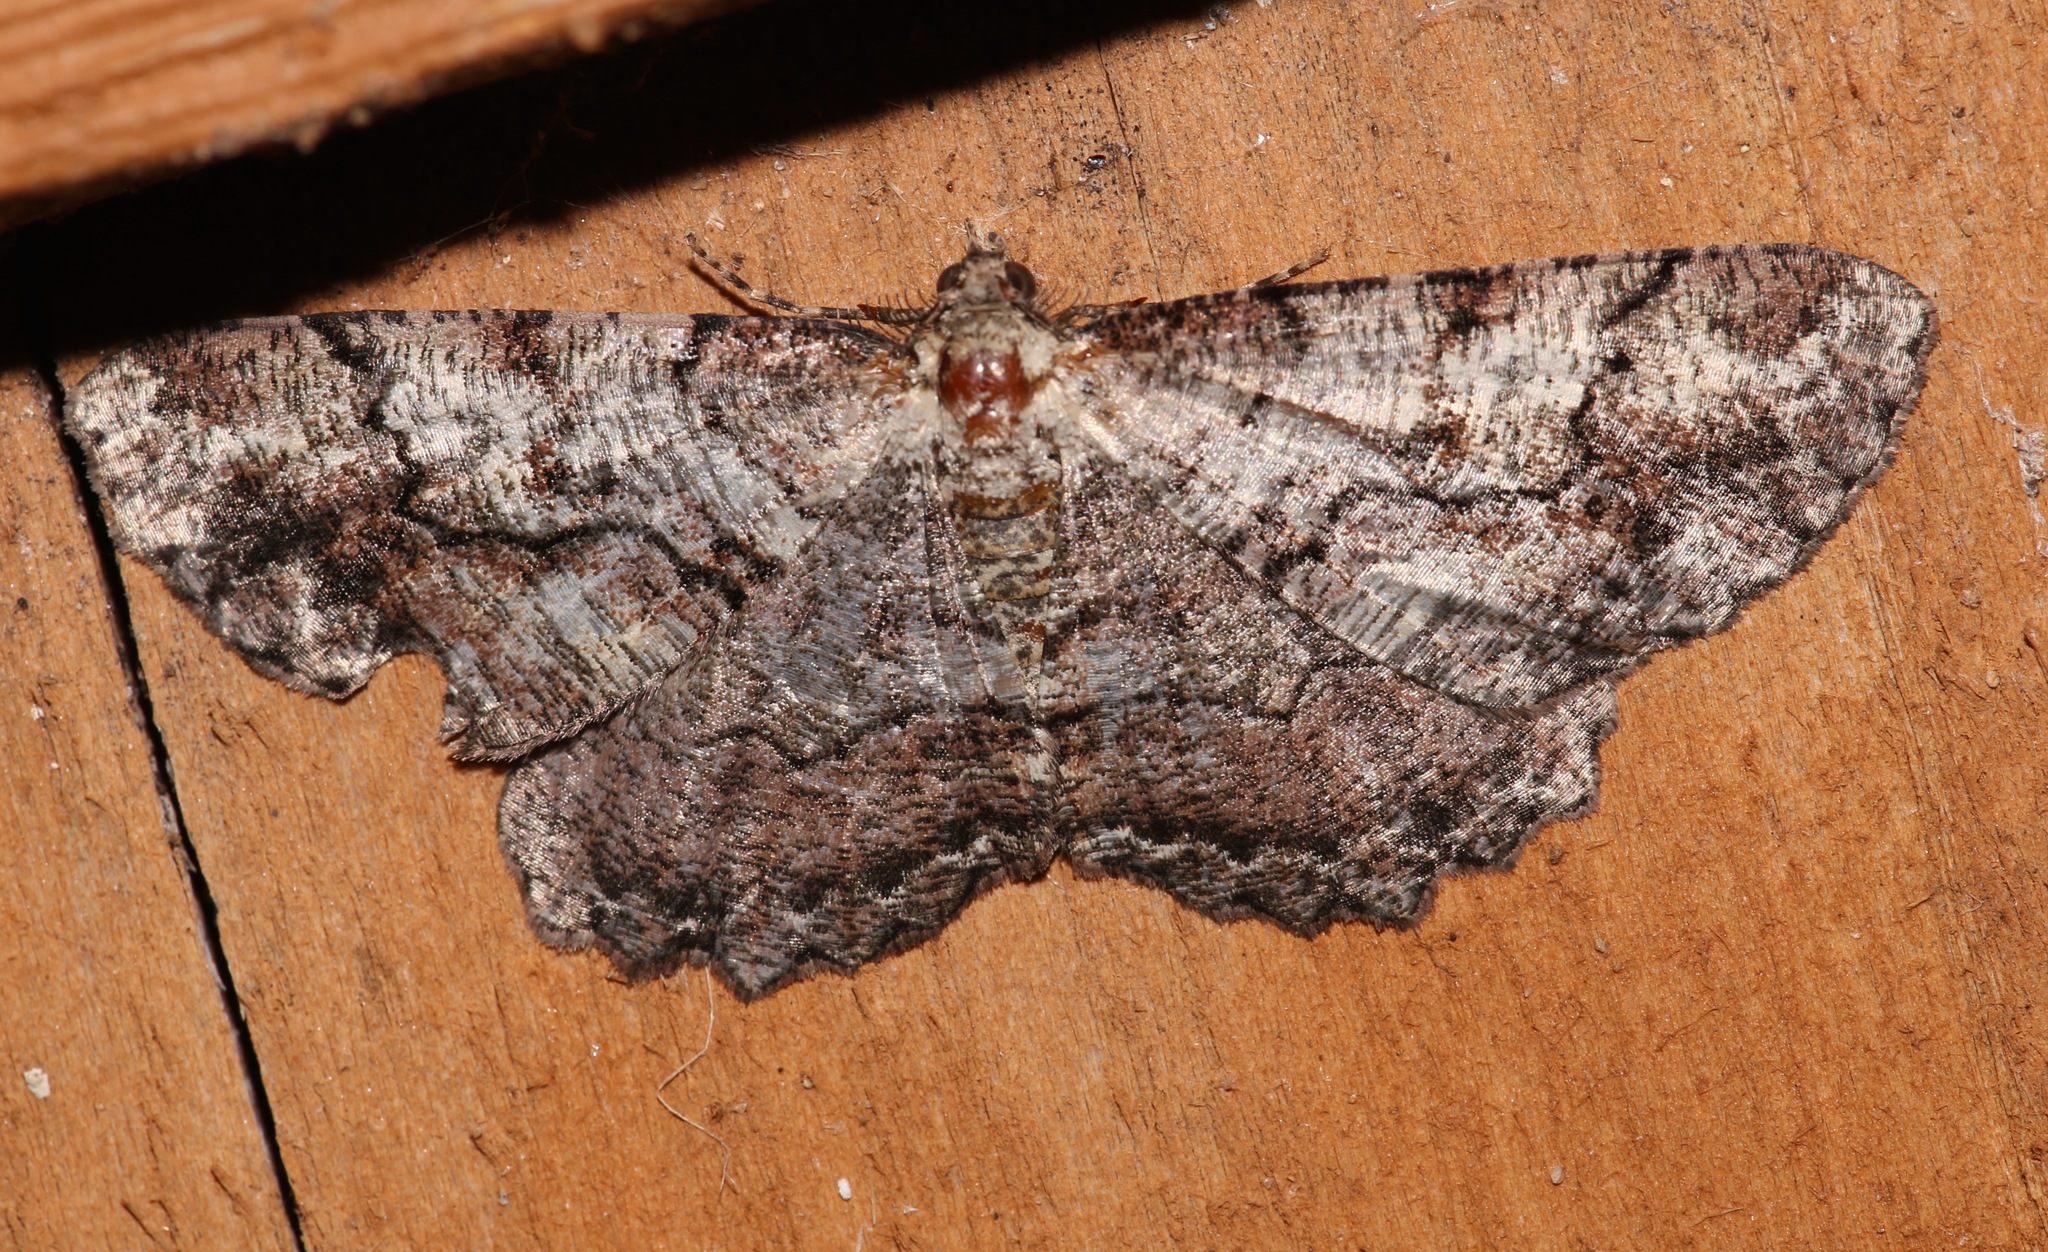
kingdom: Animalia
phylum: Arthropoda
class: Insecta
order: Lepidoptera
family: Geometridae
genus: Cymatophora
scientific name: Cymatophora approximaria
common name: Giant gray moth
